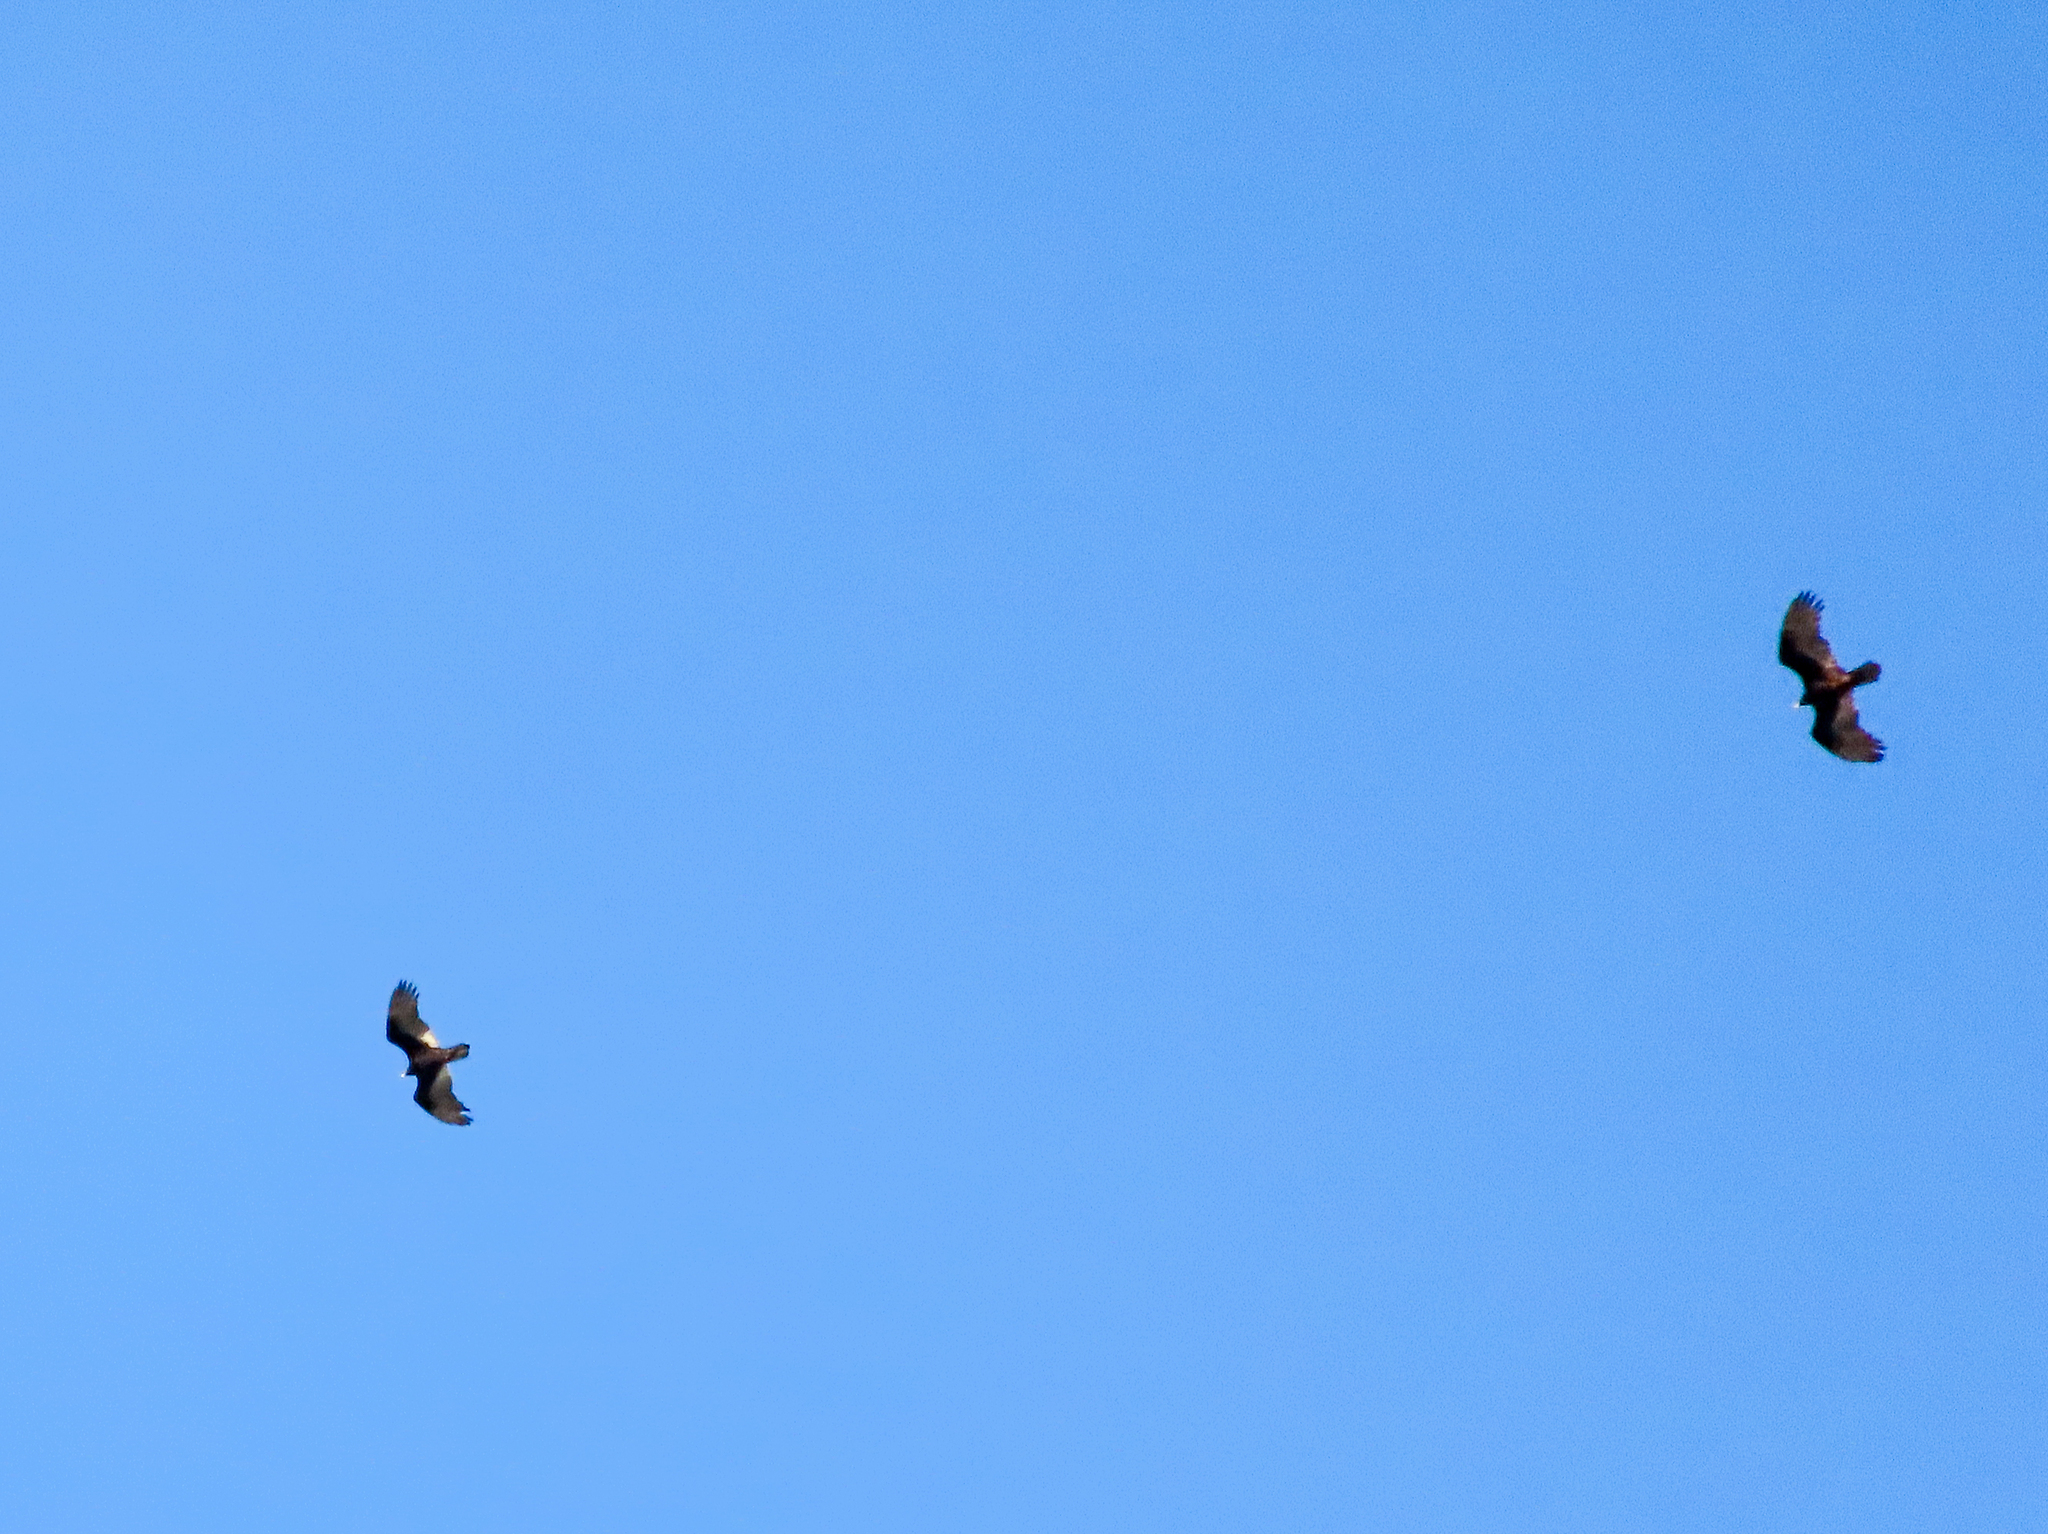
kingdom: Animalia
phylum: Chordata
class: Aves
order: Accipitriformes
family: Cathartidae
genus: Cathartes
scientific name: Cathartes aura
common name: Turkey vulture
